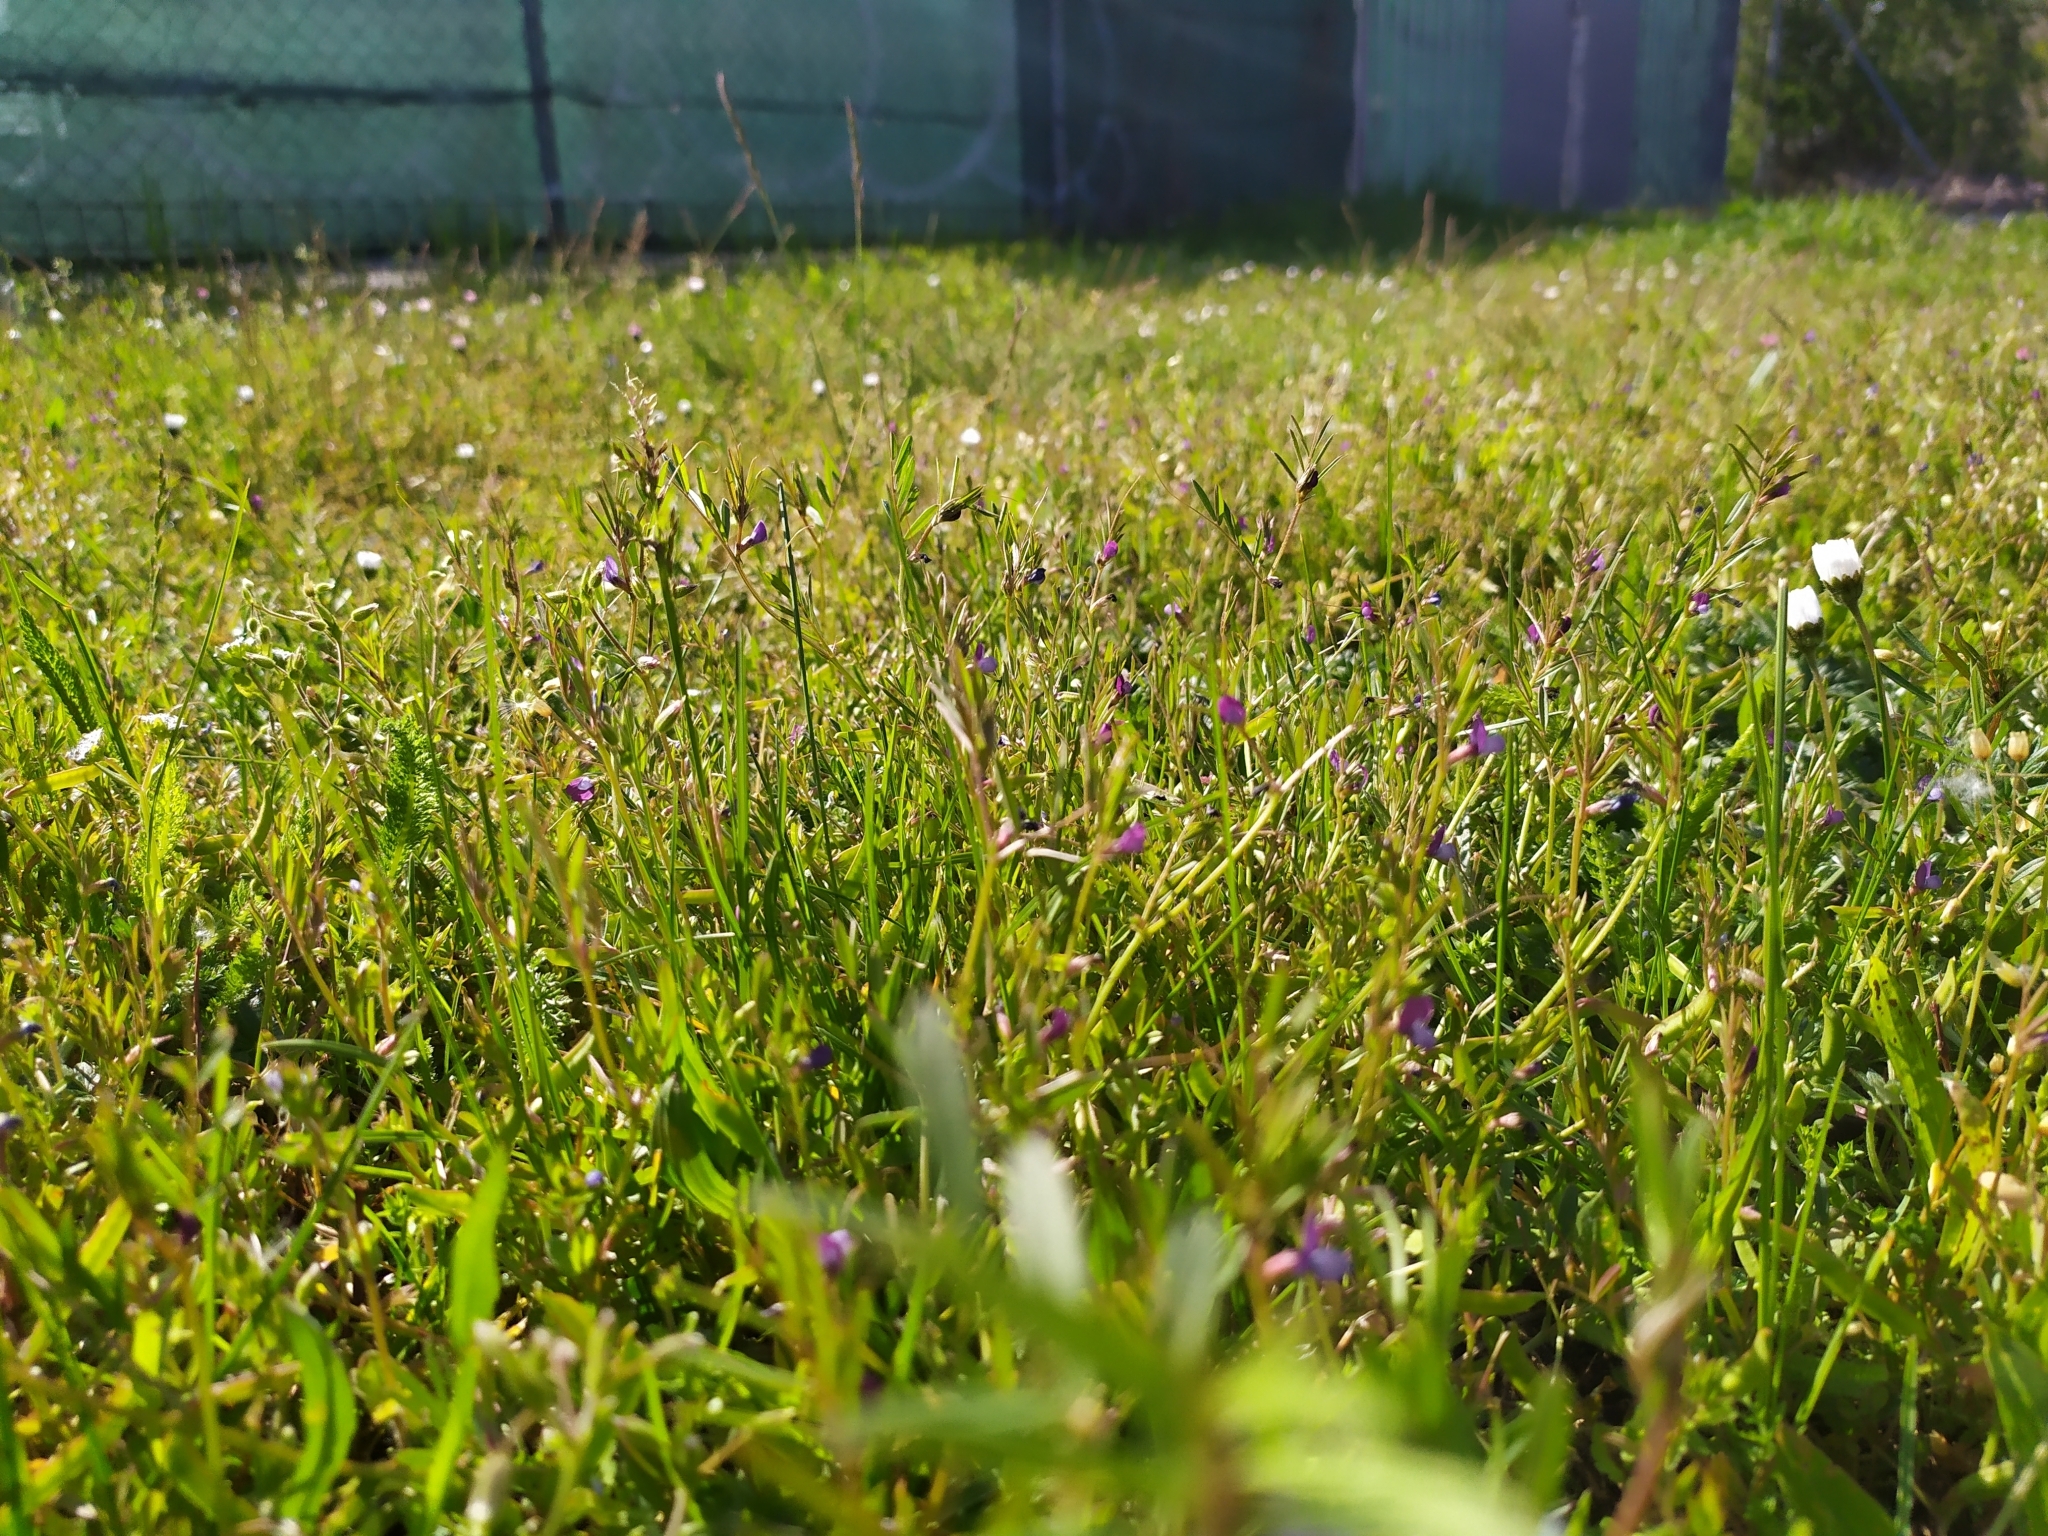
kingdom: Plantae
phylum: Tracheophyta
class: Magnoliopsida
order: Fabales
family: Fabaceae
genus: Vicia
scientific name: Vicia lathyroides
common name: Spring vetch
